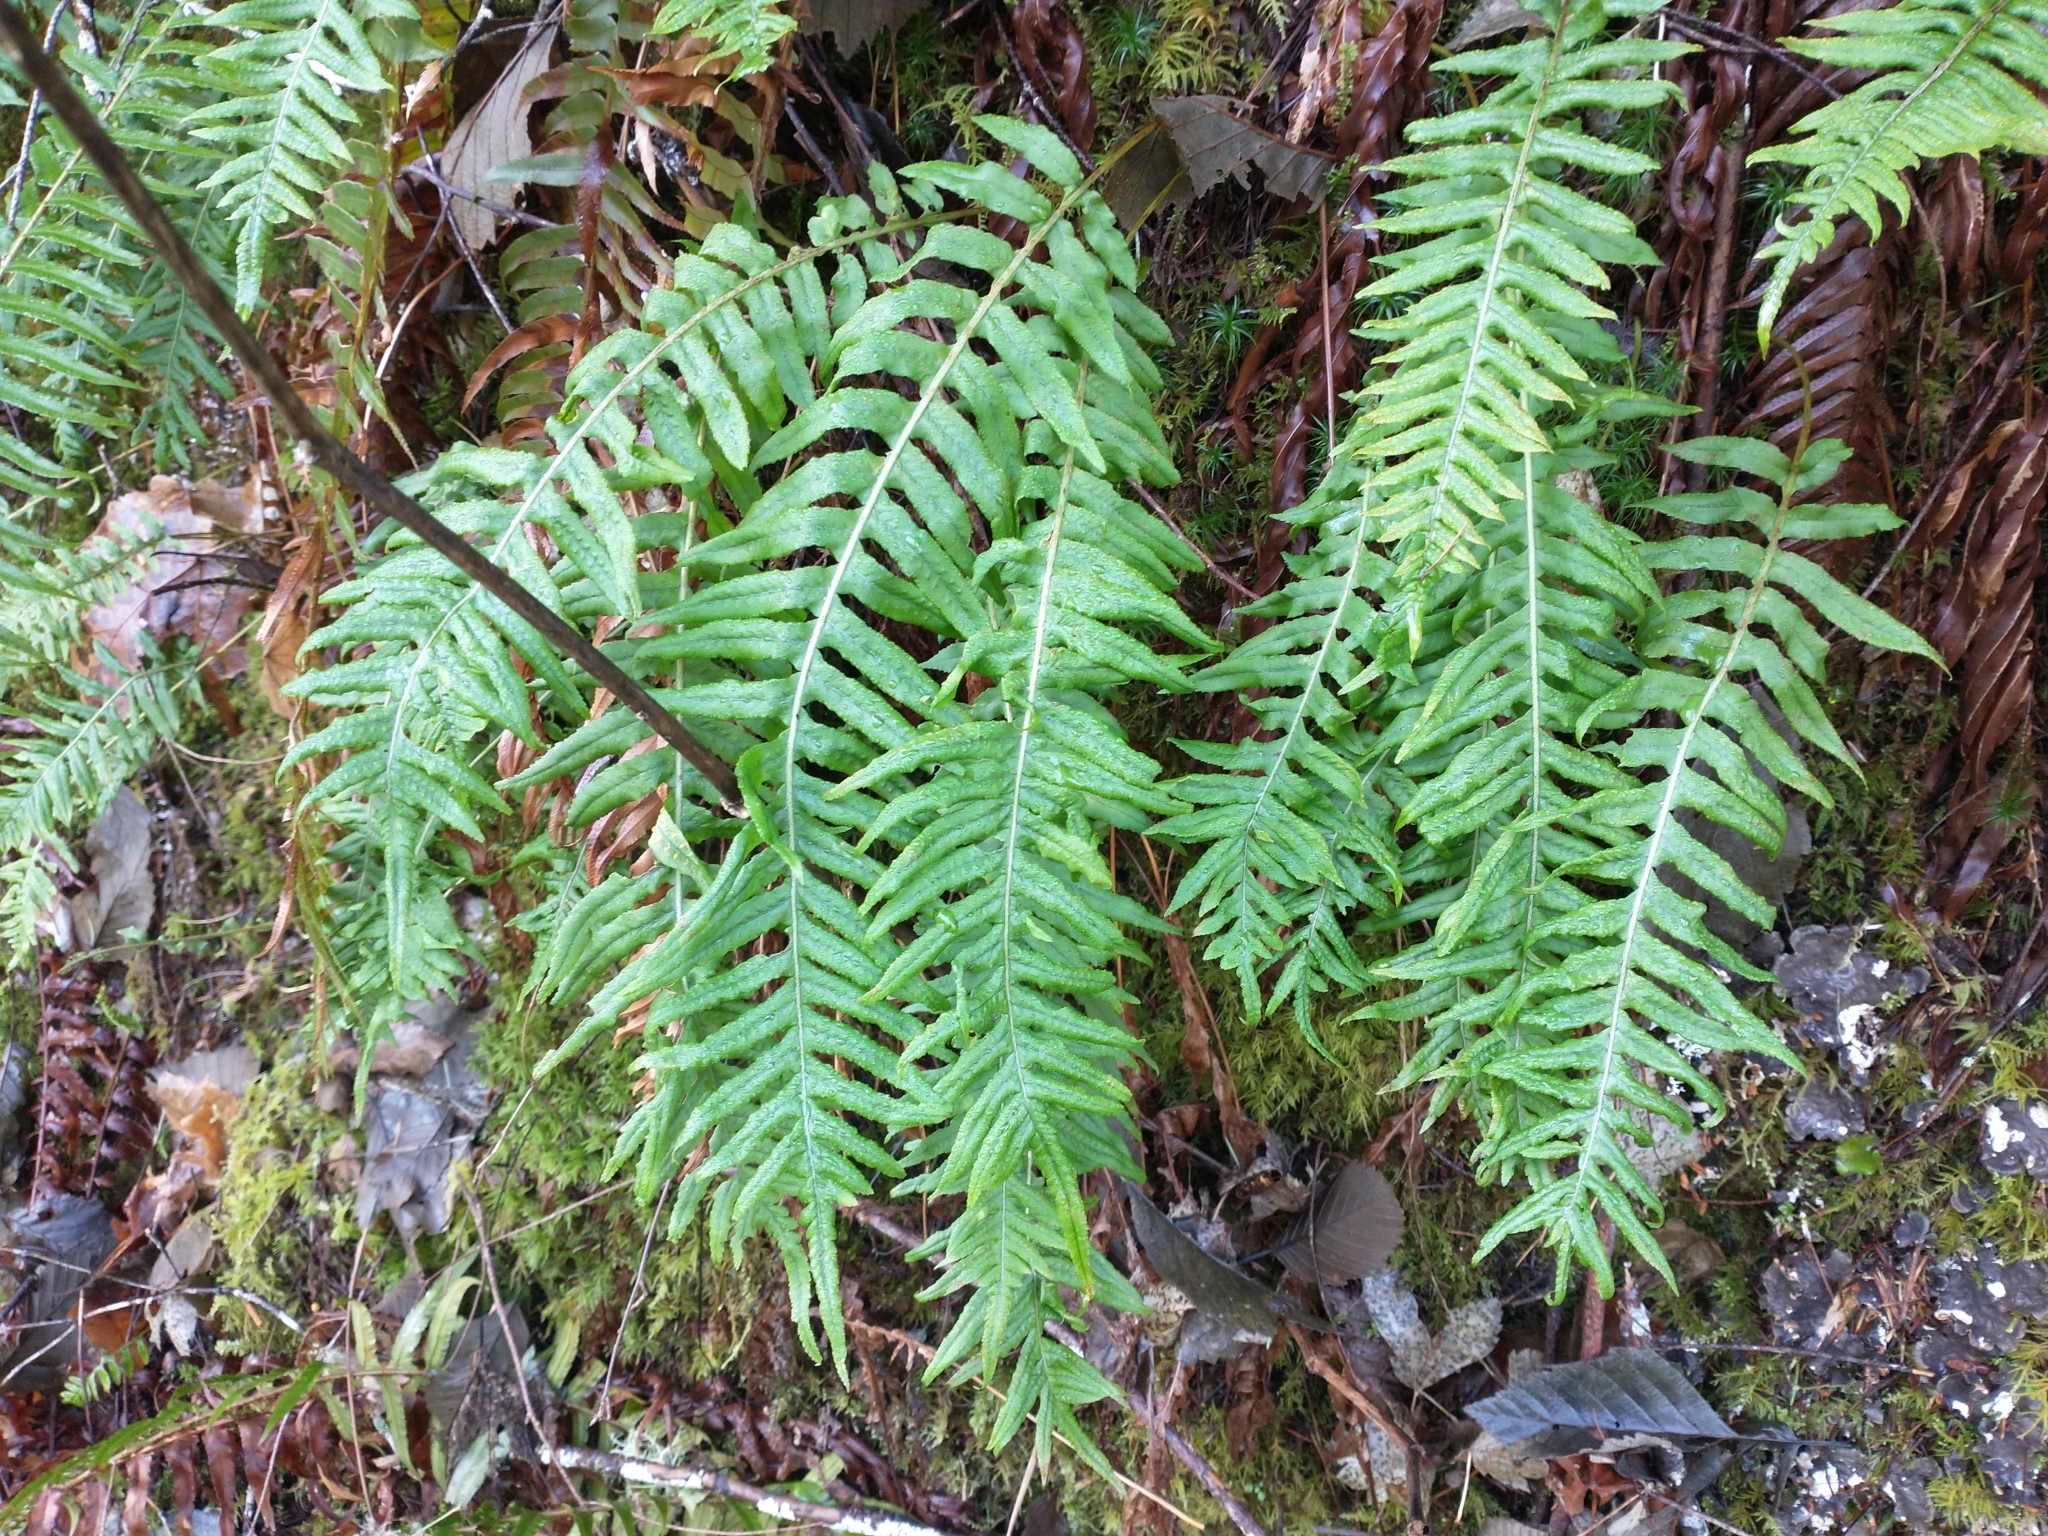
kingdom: Plantae
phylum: Tracheophyta
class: Polypodiopsida
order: Polypodiales
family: Polypodiaceae
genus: Polypodium
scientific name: Polypodium glycyrrhiza
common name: Licorice fern
